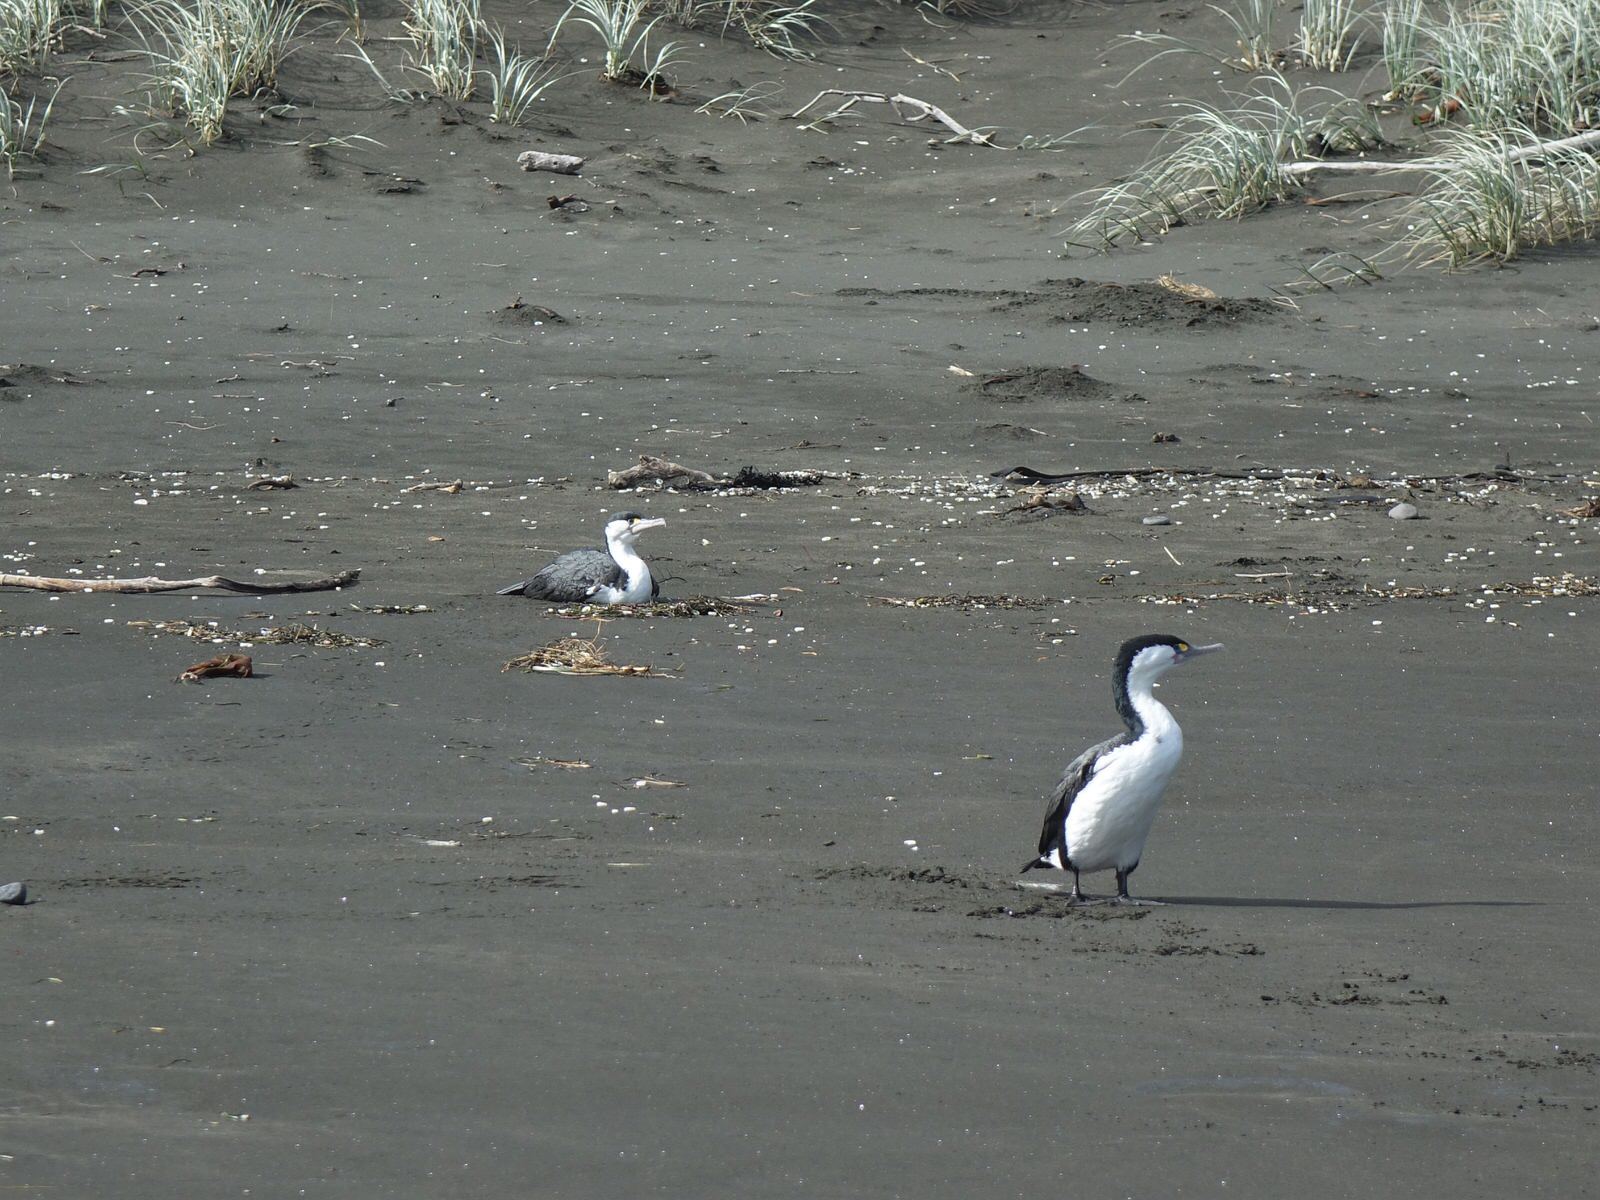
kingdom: Animalia
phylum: Chordata
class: Aves
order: Suliformes
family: Phalacrocoracidae
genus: Phalacrocorax
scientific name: Phalacrocorax varius
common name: Pied cormorant
